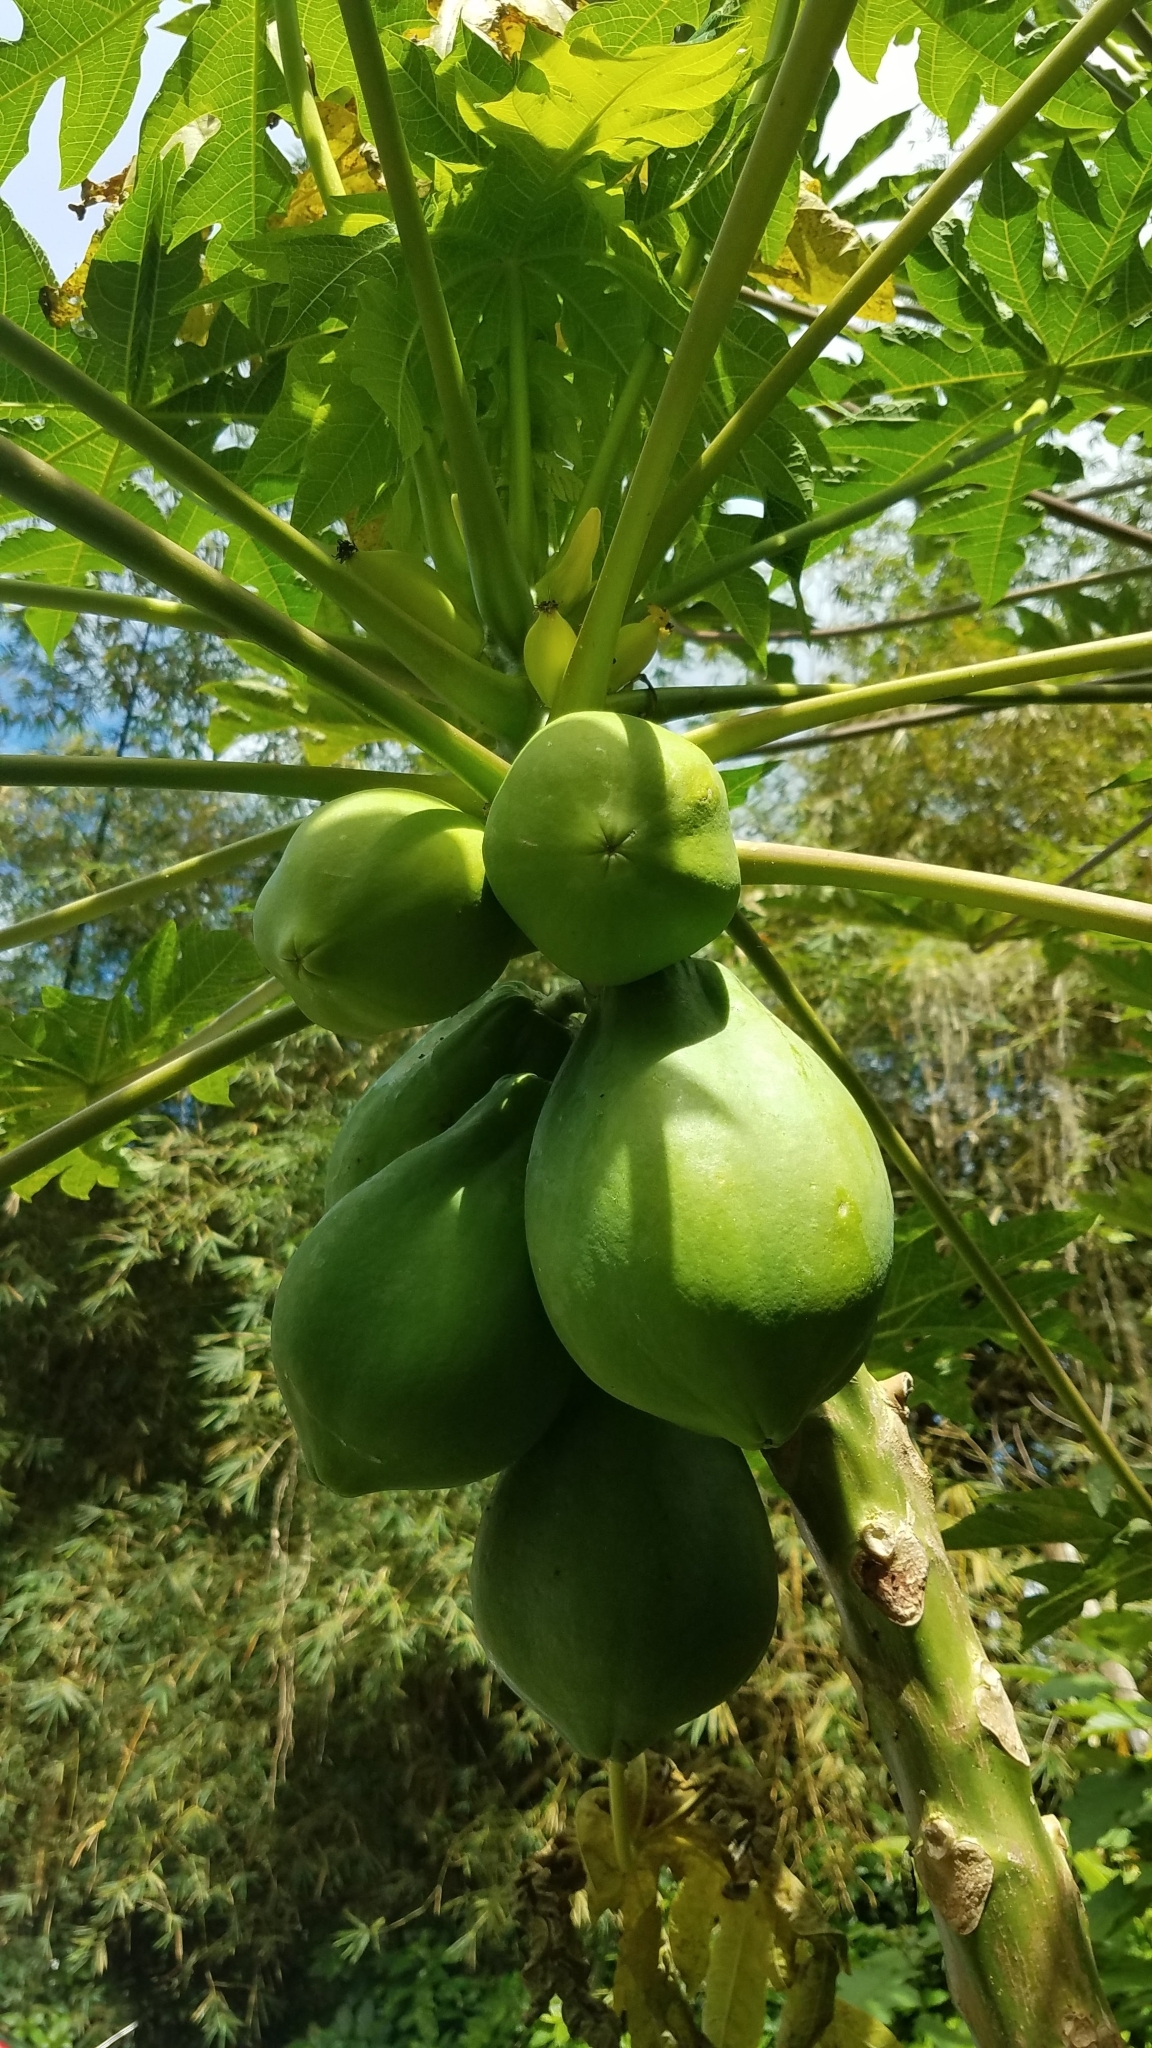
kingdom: Plantae
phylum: Tracheophyta
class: Magnoliopsida
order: Brassicales
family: Caricaceae
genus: Carica
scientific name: Carica papaya
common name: Papaya
